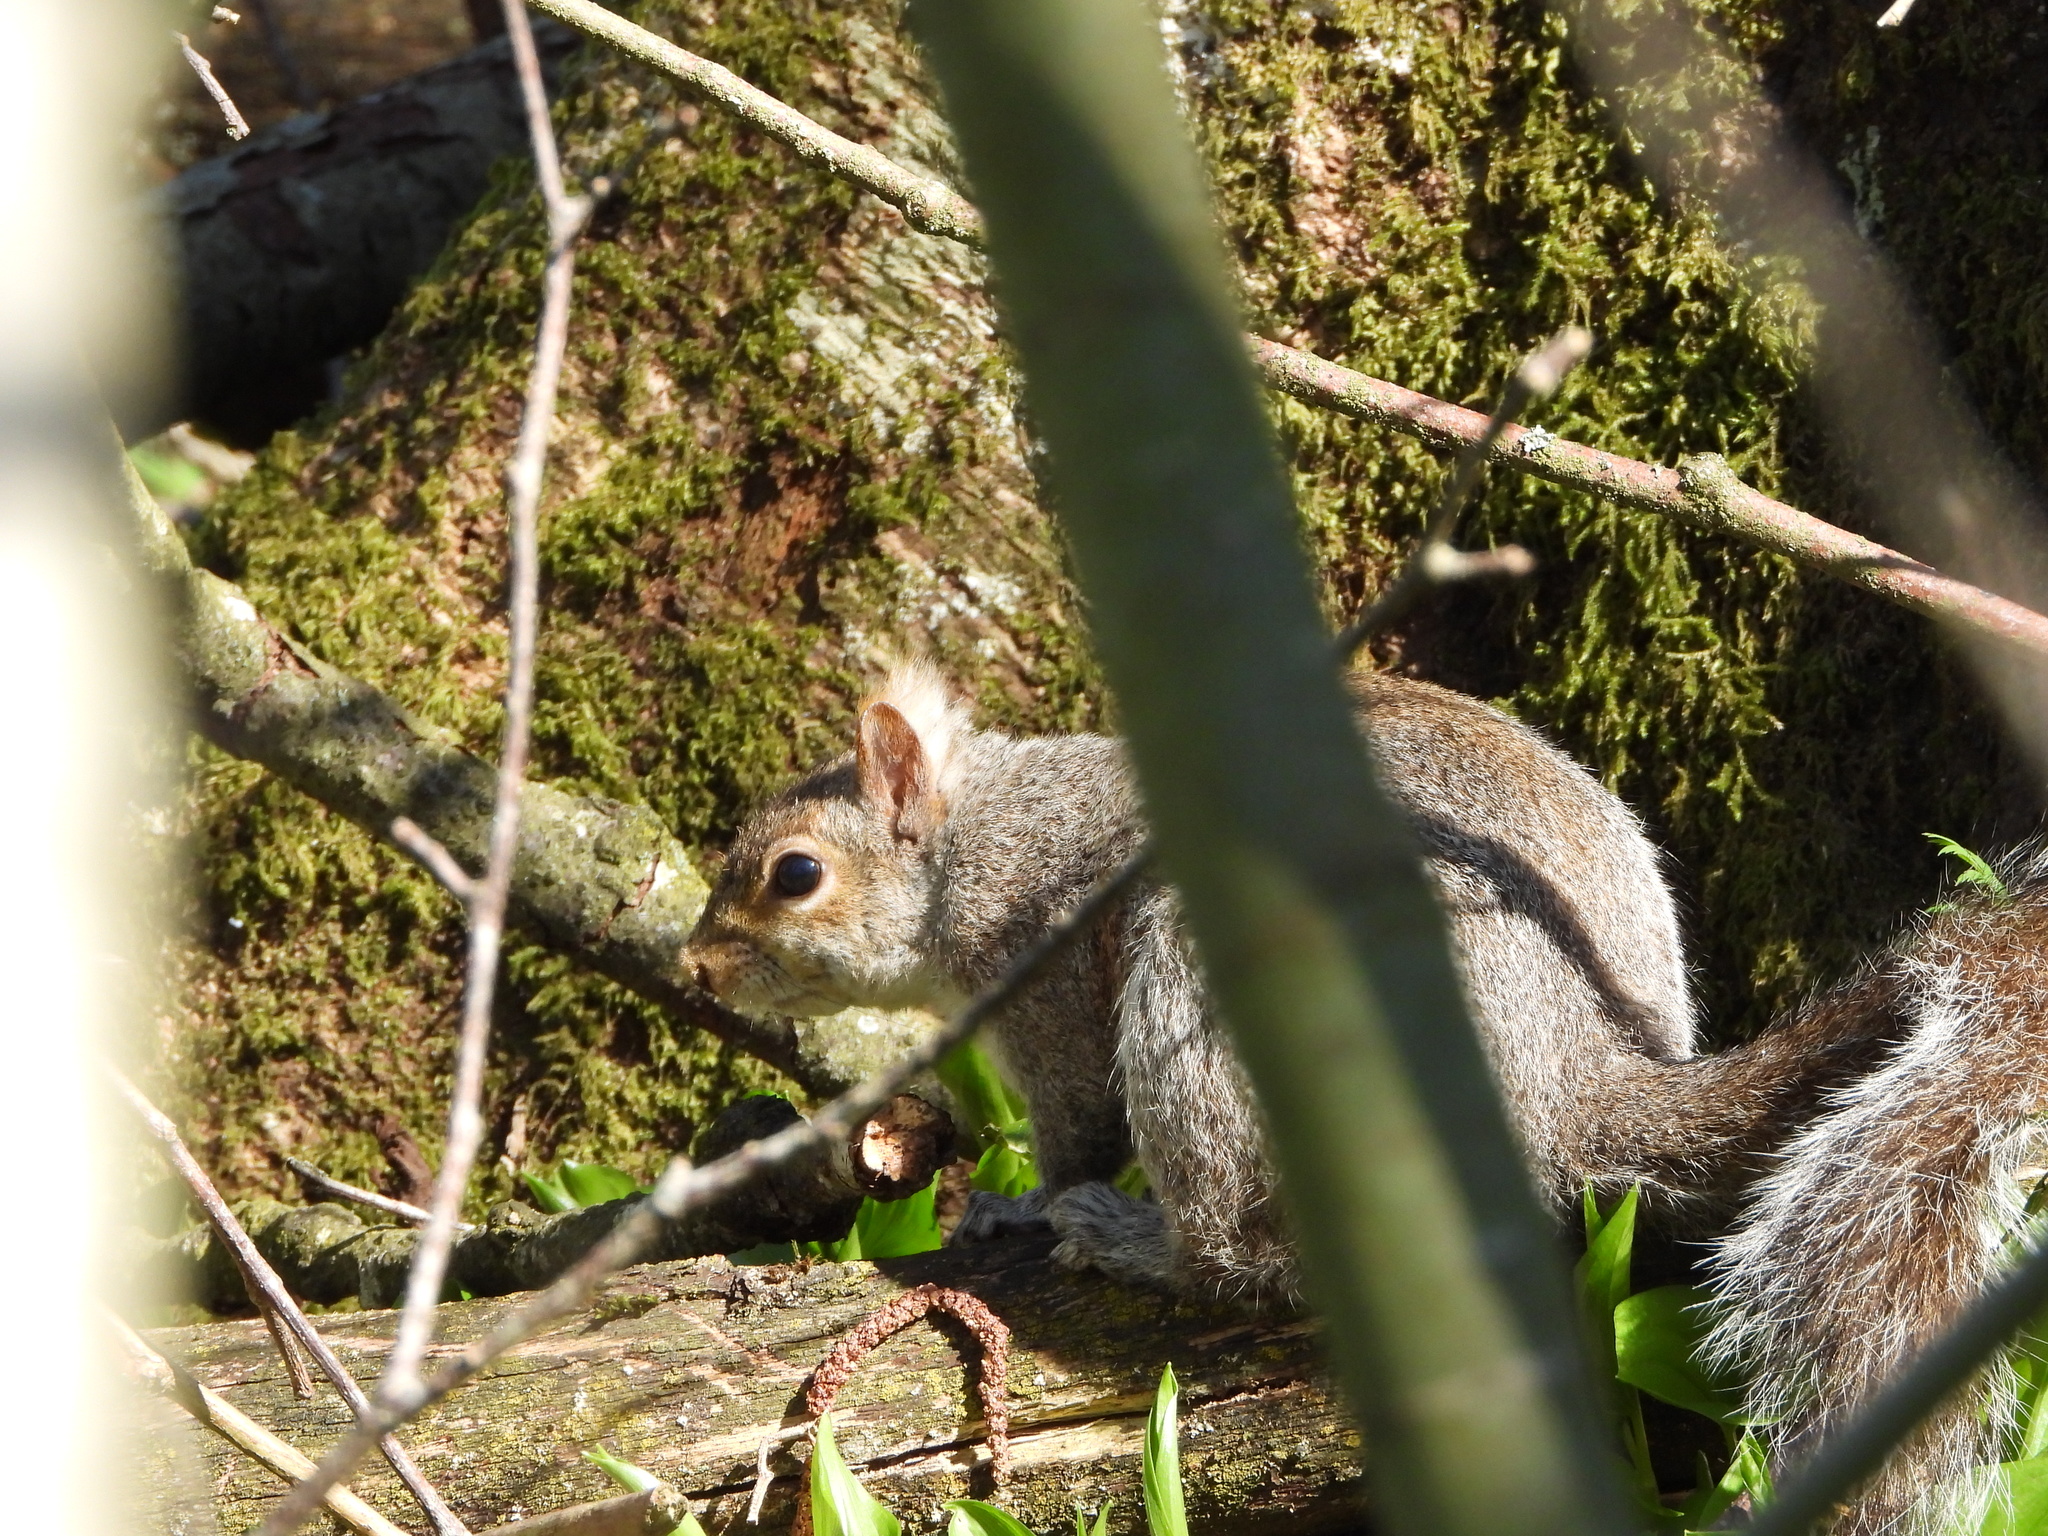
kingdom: Animalia
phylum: Chordata
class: Mammalia
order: Rodentia
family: Sciuridae
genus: Sciurus
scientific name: Sciurus carolinensis
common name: Eastern gray squirrel
